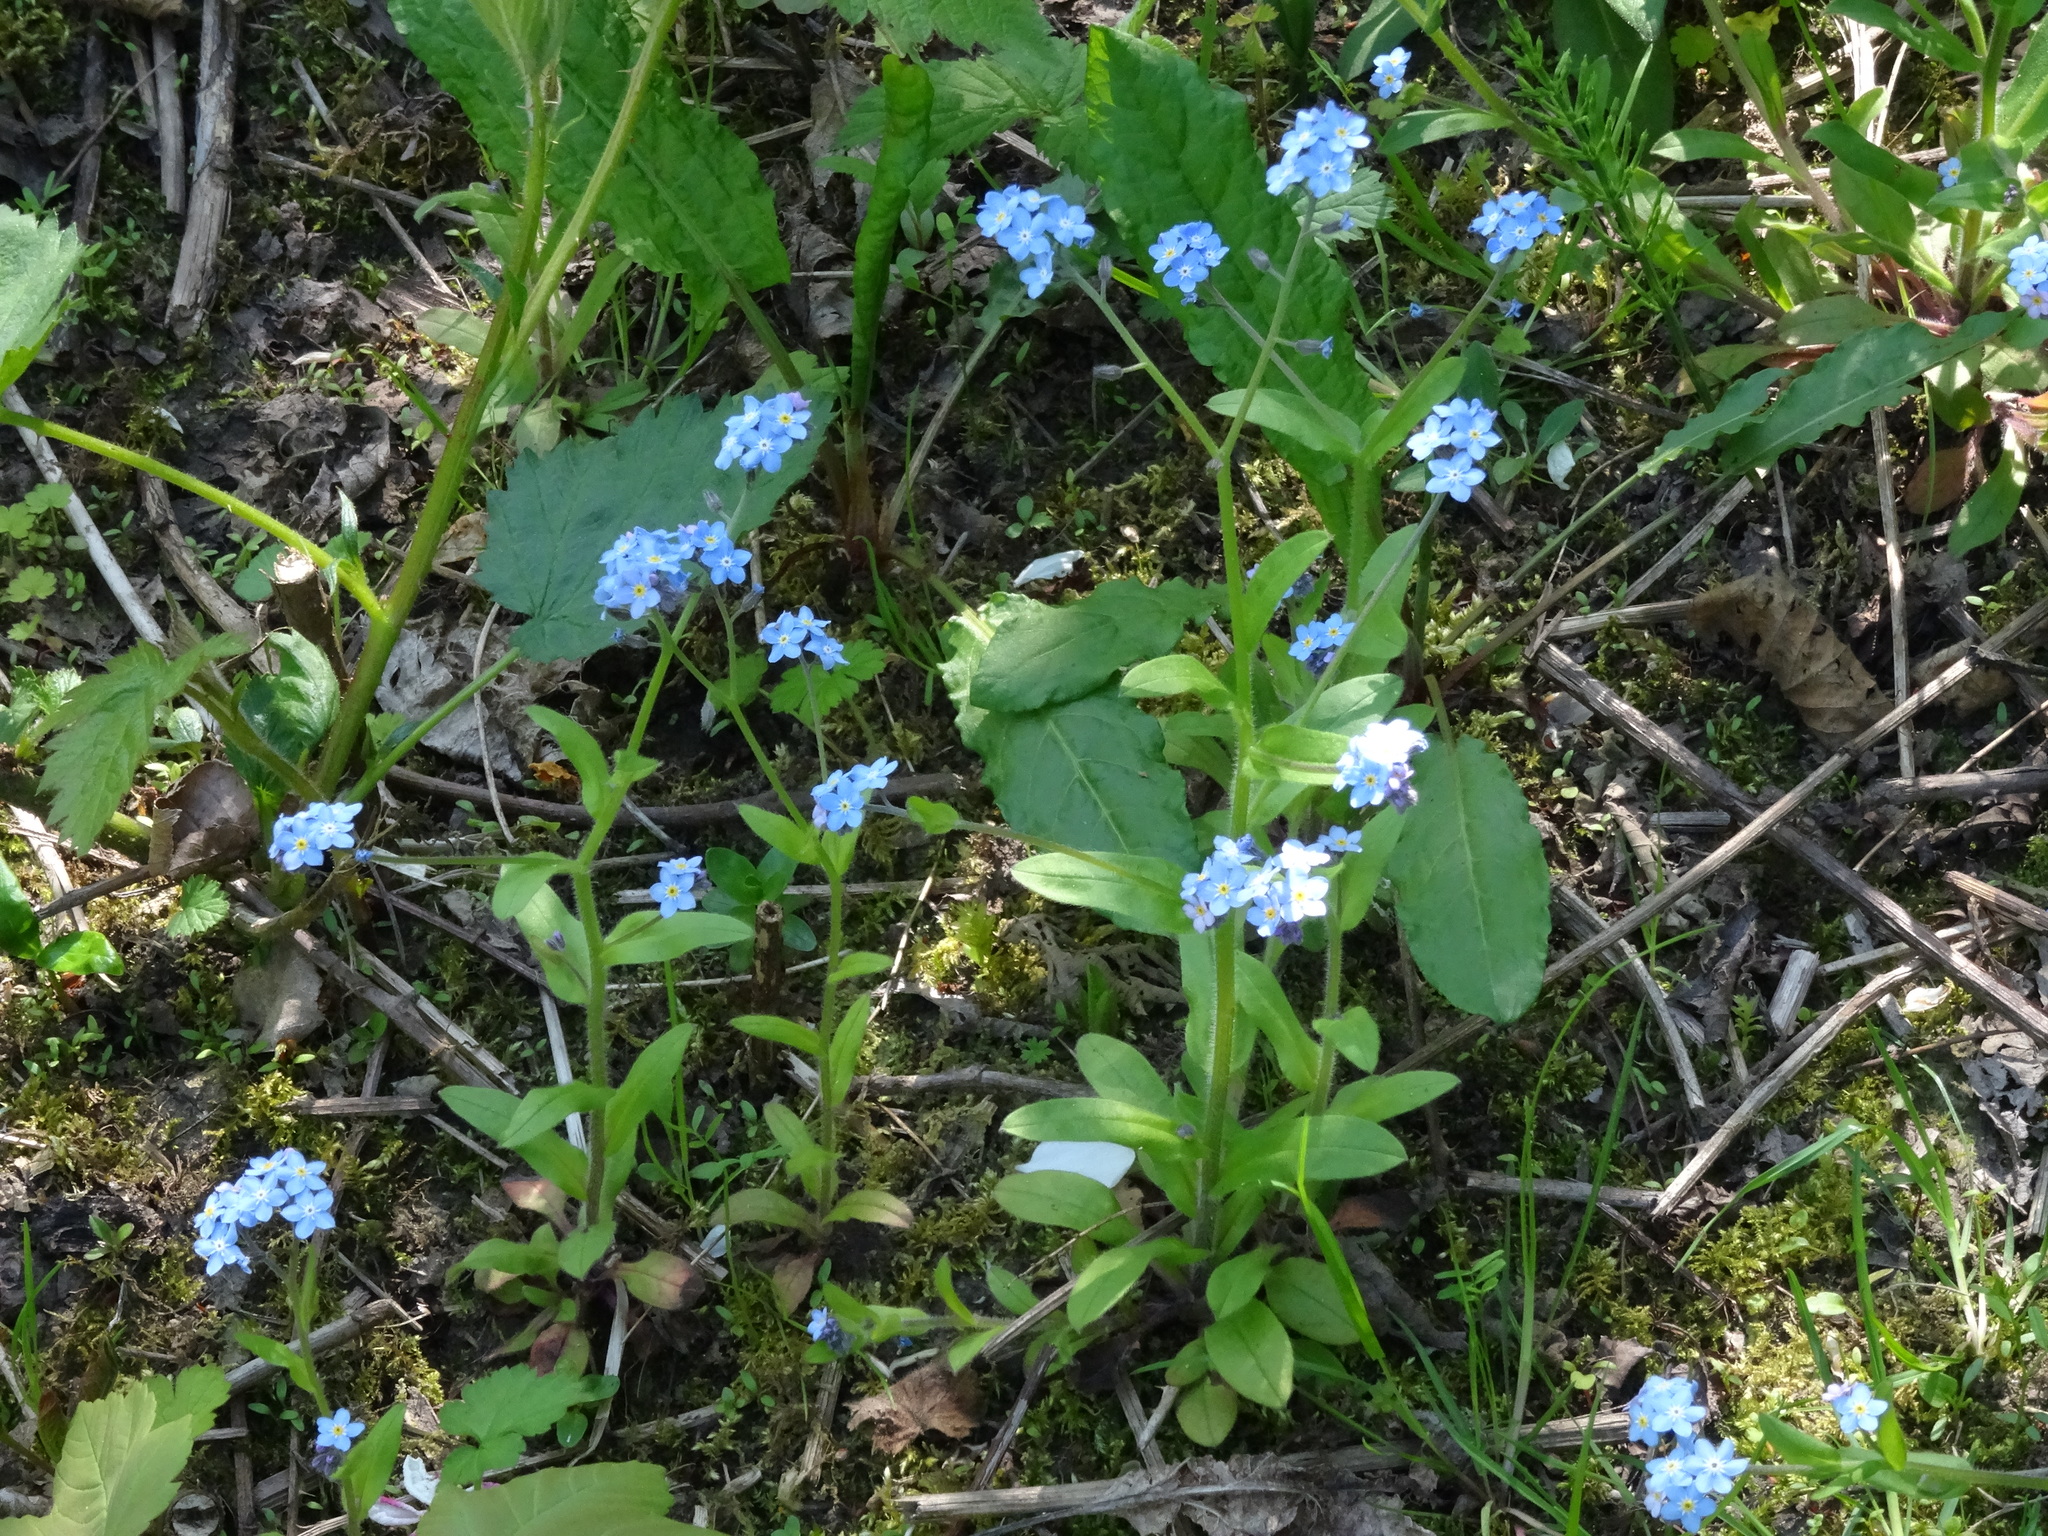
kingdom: Plantae
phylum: Tracheophyta
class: Magnoliopsida
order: Boraginales
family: Boraginaceae
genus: Myosotis
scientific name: Myosotis sylvatica
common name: Wood forget-me-not
